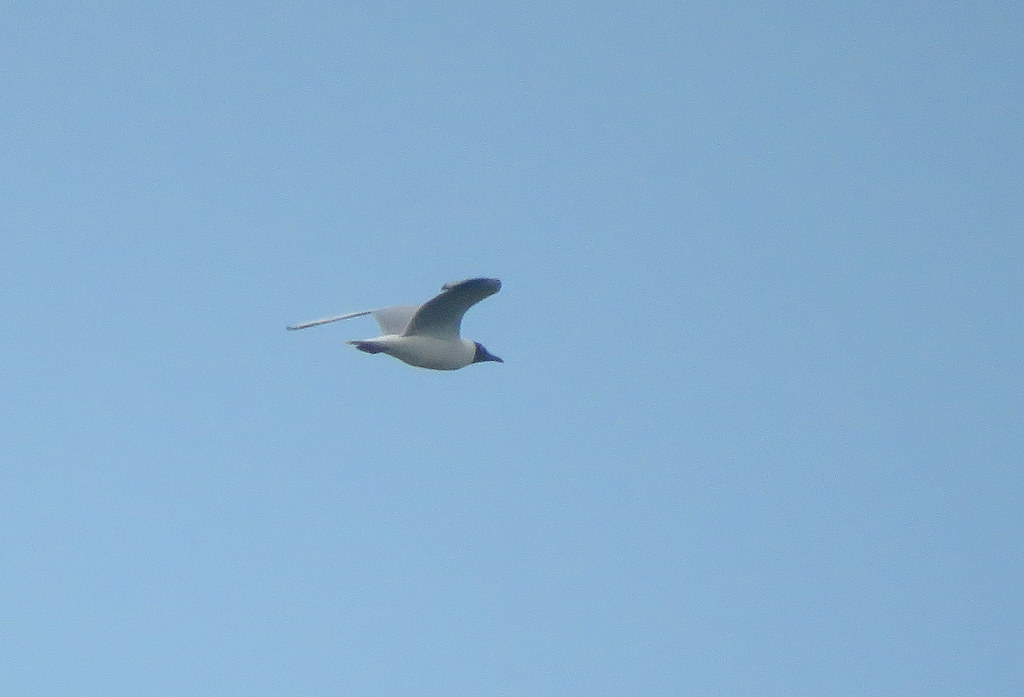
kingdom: Animalia
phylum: Chordata
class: Aves
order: Charadriiformes
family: Laridae
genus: Chroicocephalus
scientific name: Chroicocephalus maculipennis
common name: Brown-hooded gull
